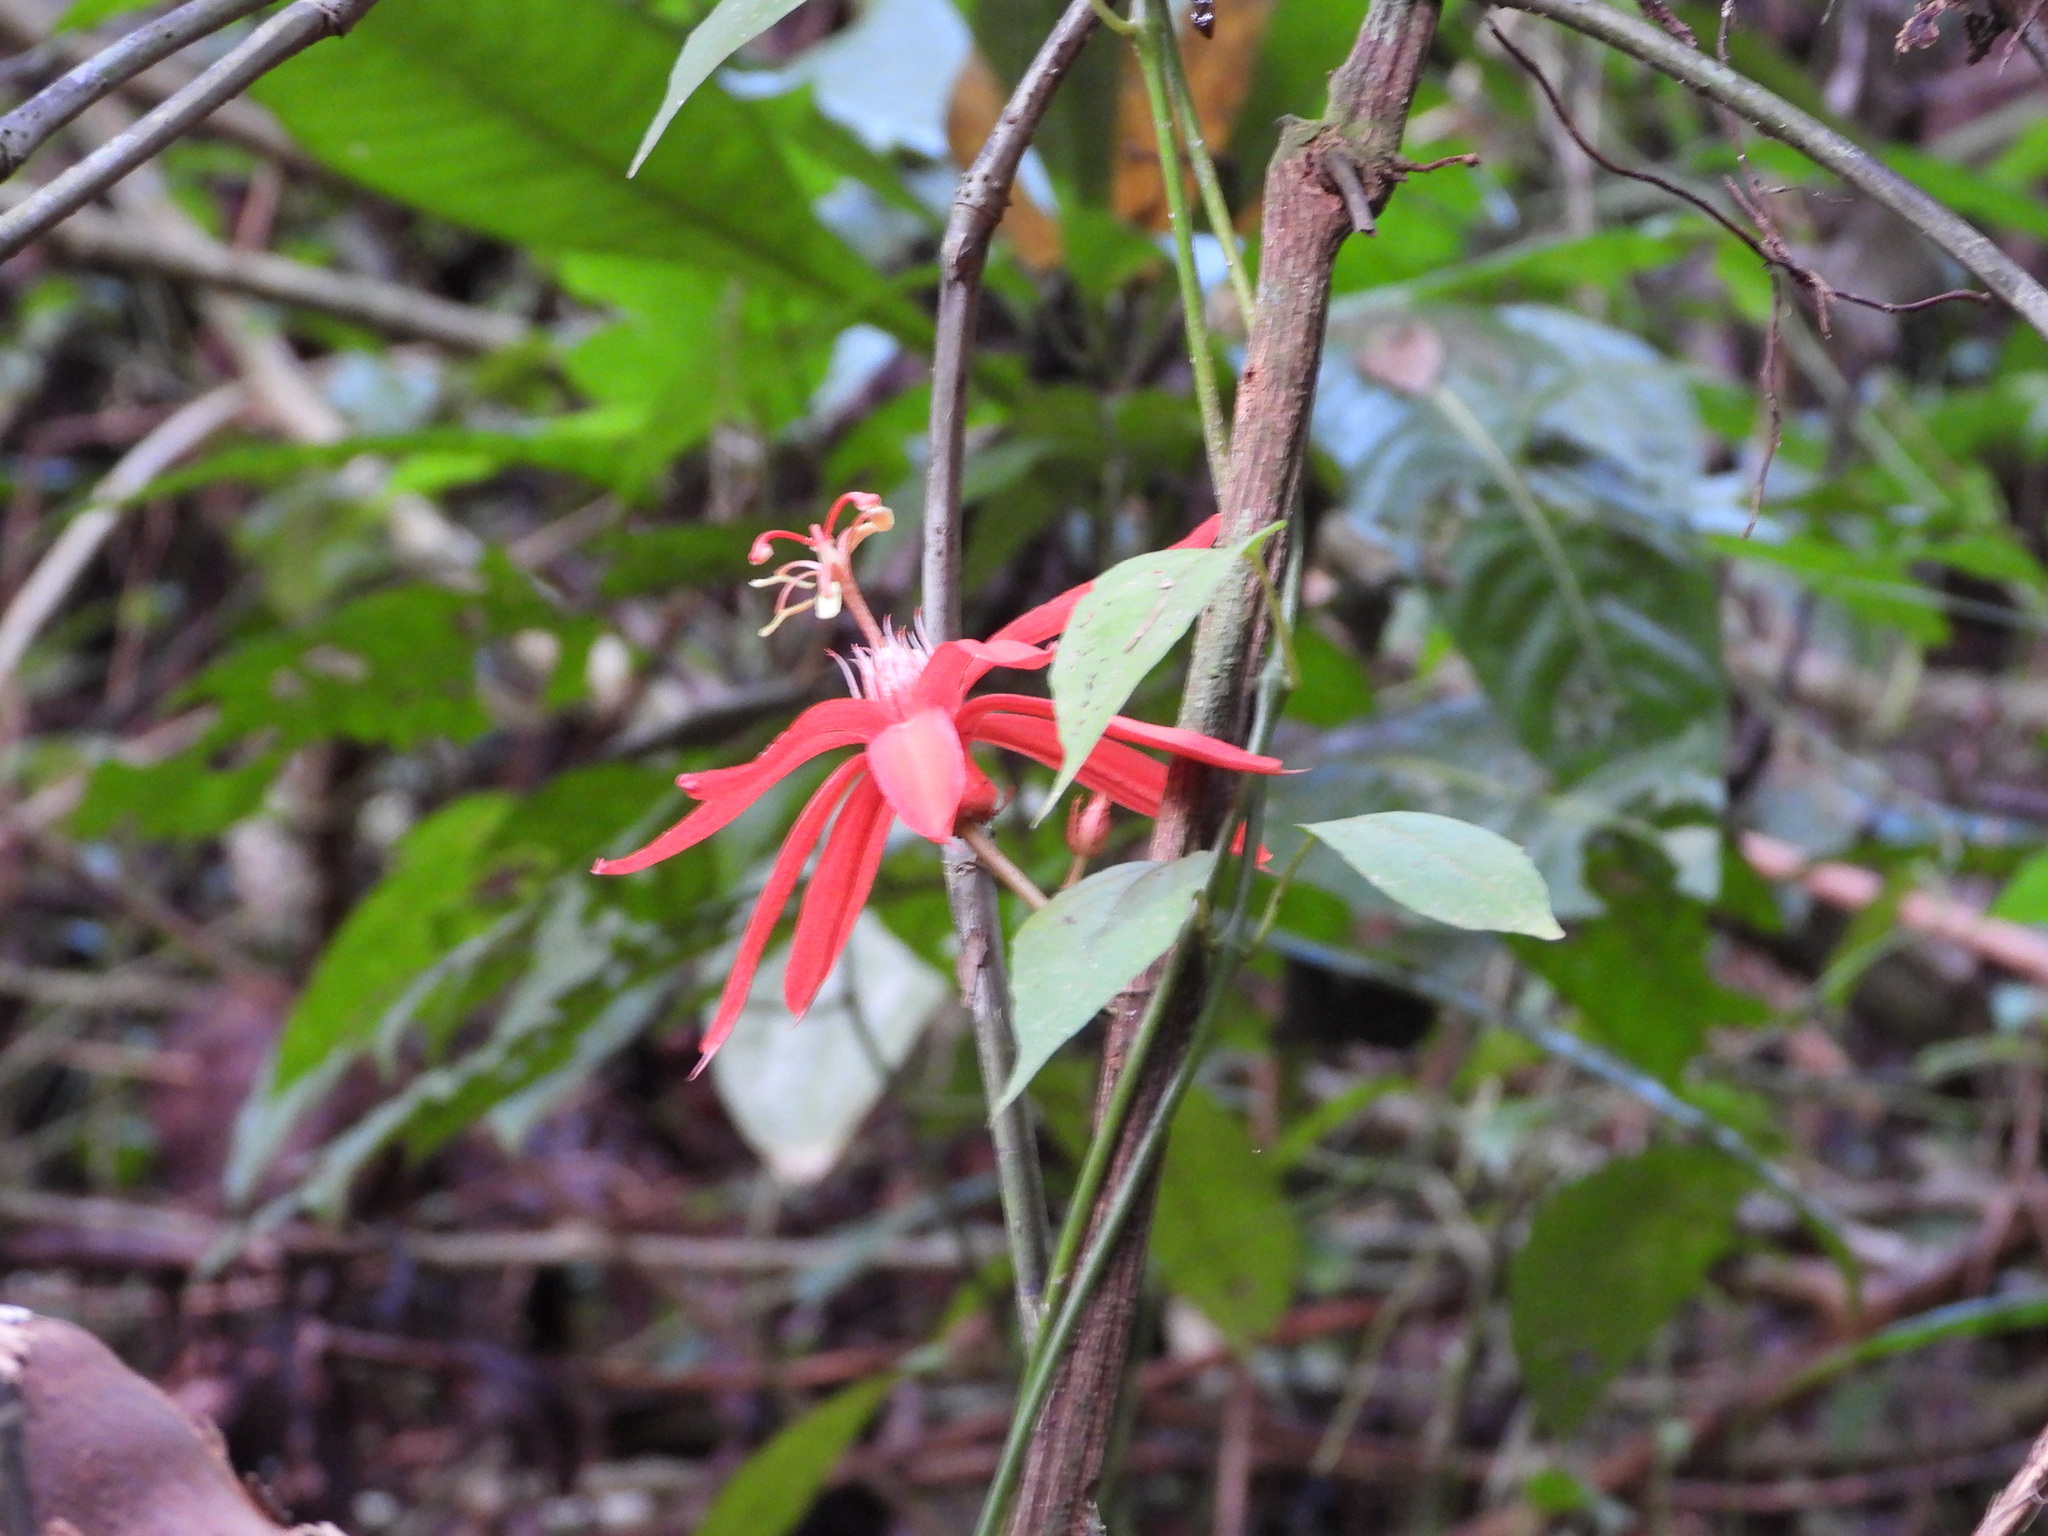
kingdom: Plantae
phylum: Tracheophyta
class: Magnoliopsida
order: Malpighiales
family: Passifloraceae
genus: Passiflora
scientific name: Passiflora vitifolia
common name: Perfumed passionflower
